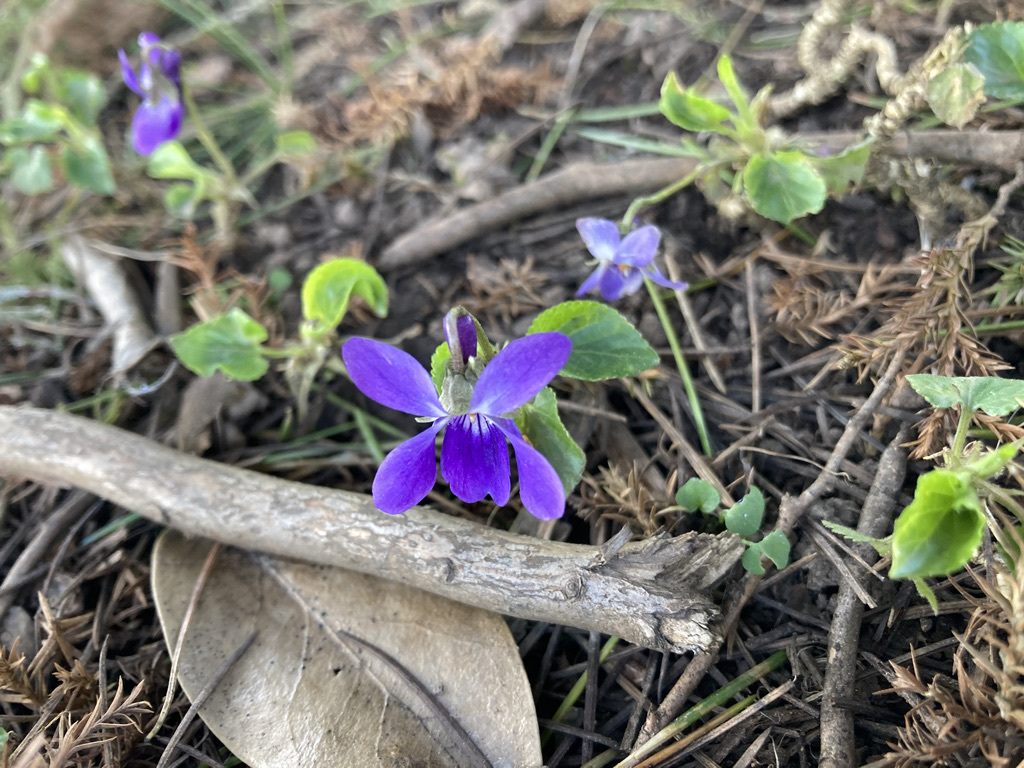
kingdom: Plantae
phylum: Tracheophyta
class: Magnoliopsida
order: Malpighiales
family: Violaceae
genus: Viola
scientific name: Viola odorata
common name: Sweet violet
